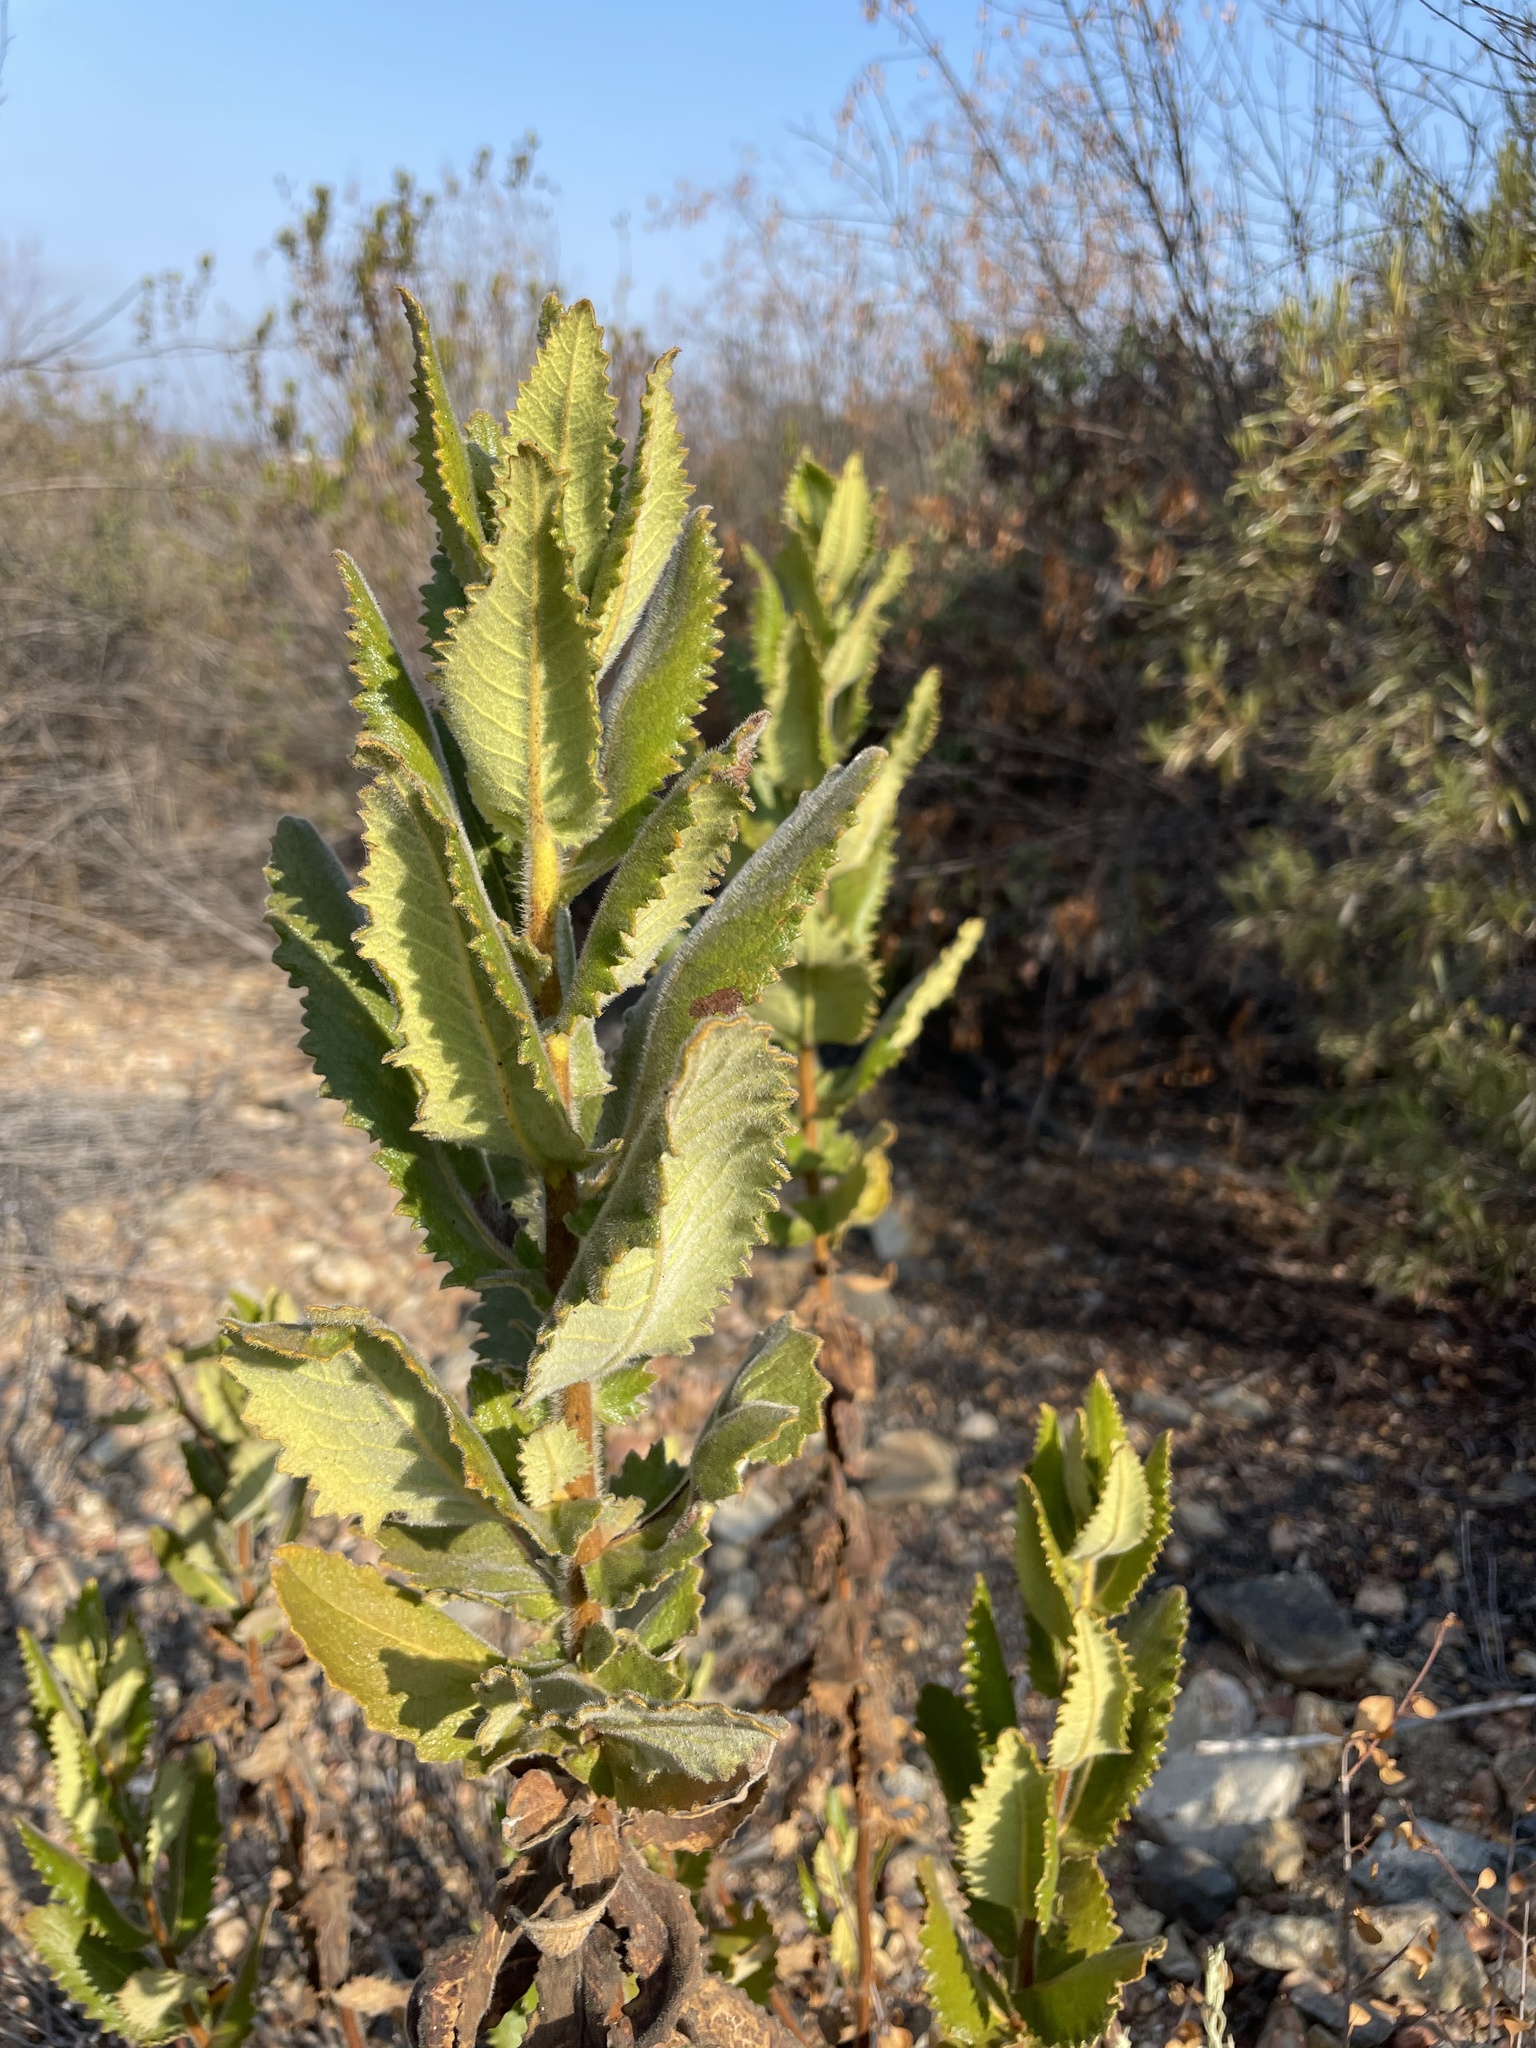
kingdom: Plantae
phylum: Tracheophyta
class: Magnoliopsida
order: Boraginales
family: Namaceae
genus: Eriodictyon
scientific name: Eriodictyon sessilifolium
